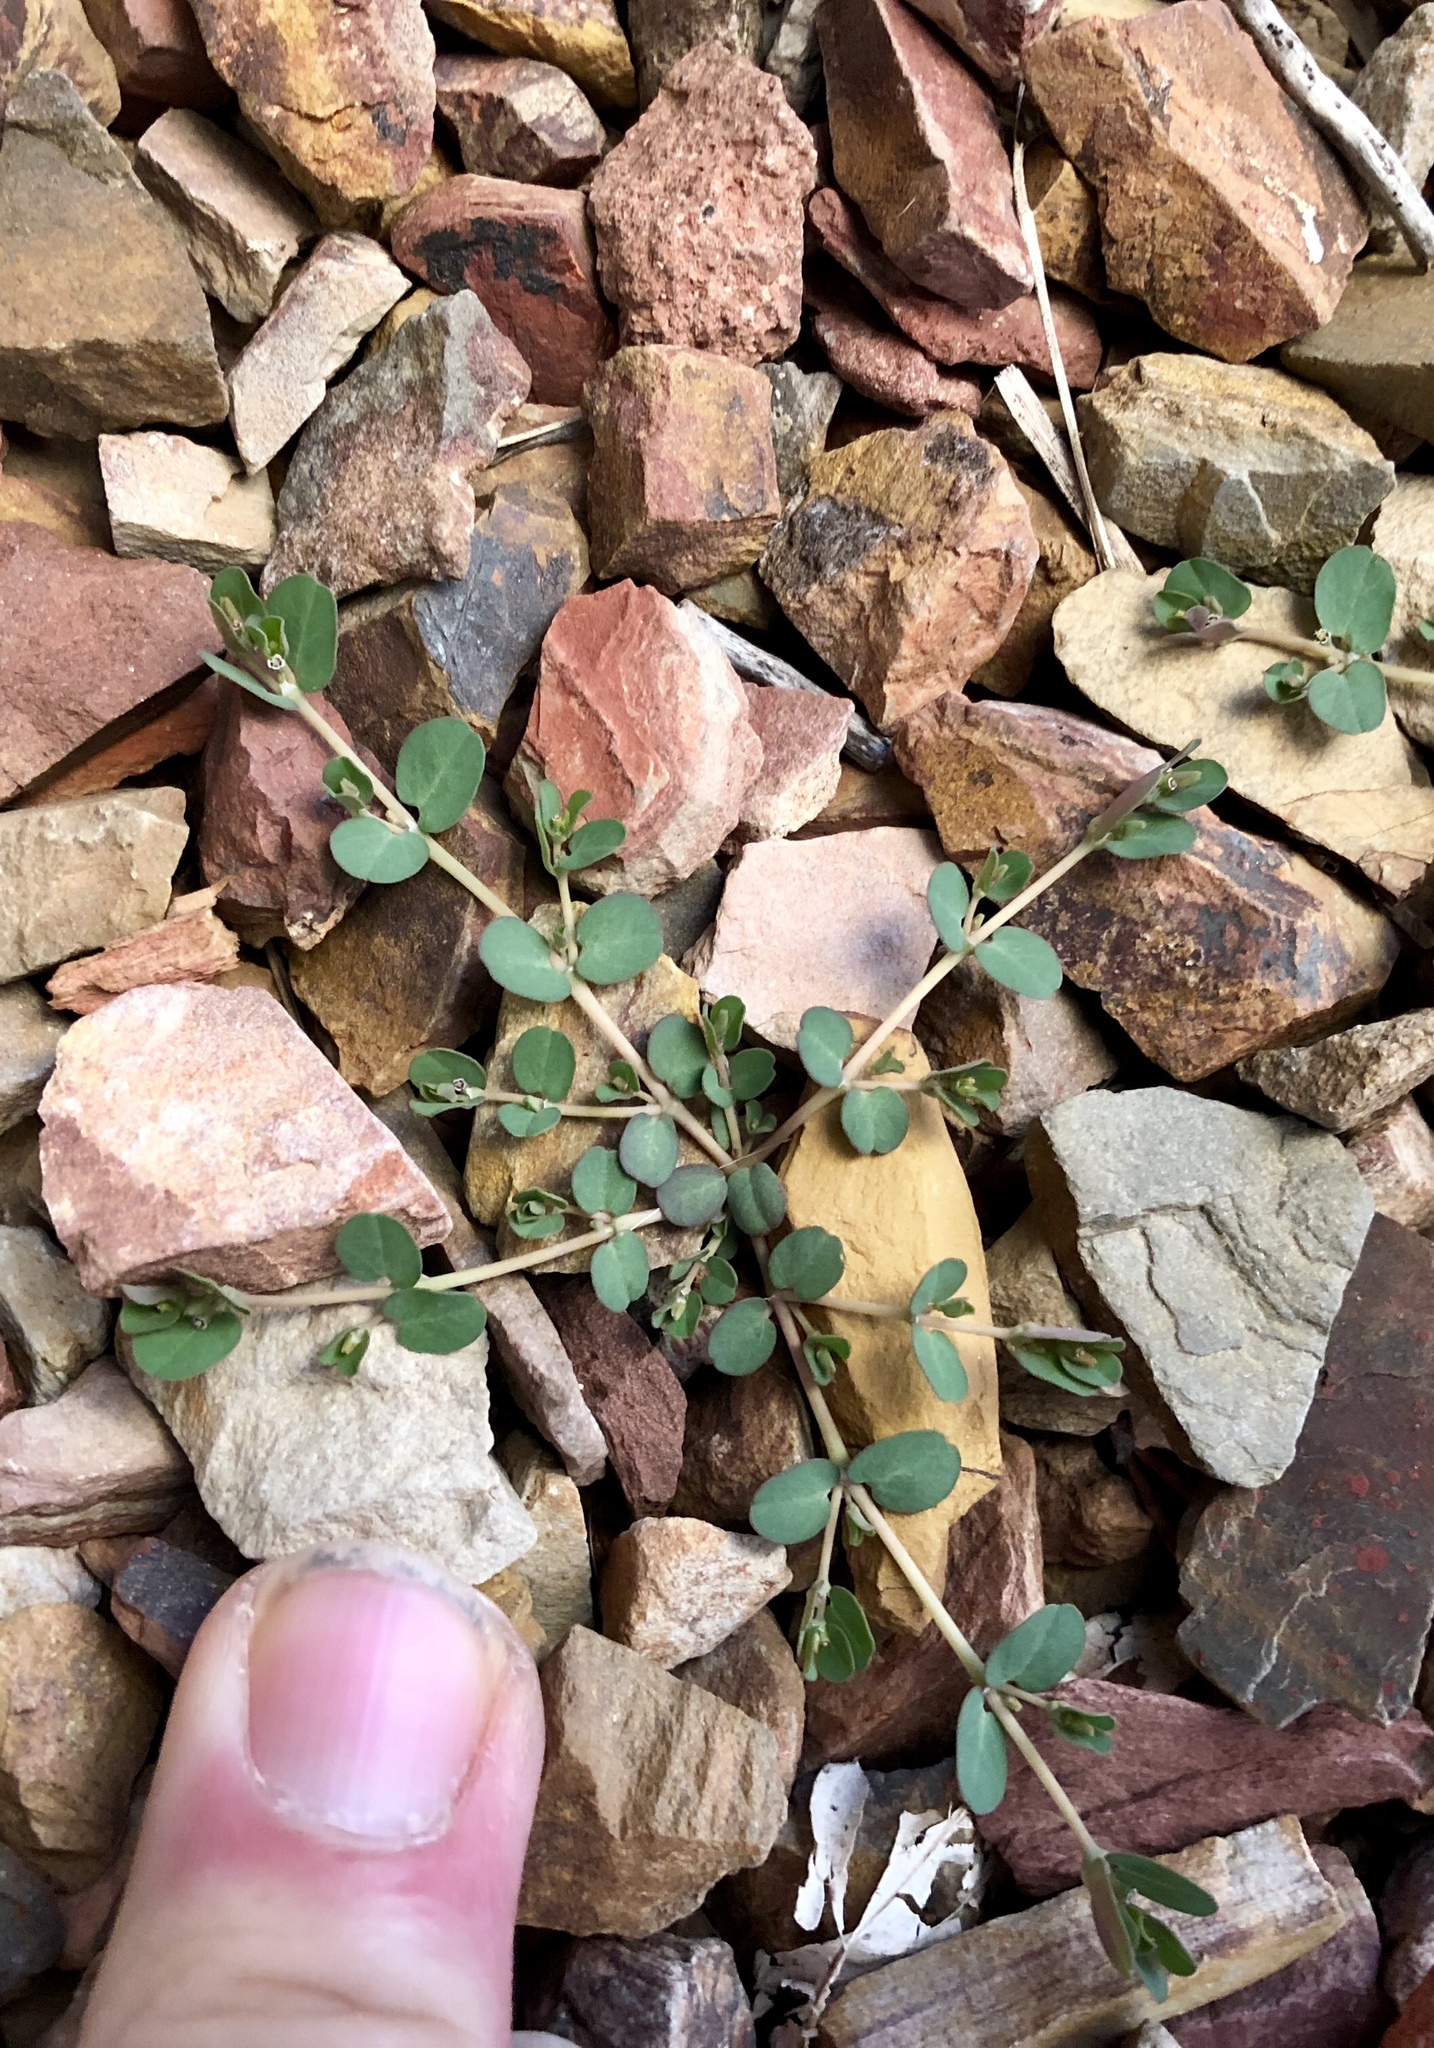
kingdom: Plantae
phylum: Tracheophyta
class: Magnoliopsida
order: Malpighiales
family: Euphorbiaceae
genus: Euphorbia
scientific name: Euphorbia serpens
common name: Matted sandmat
